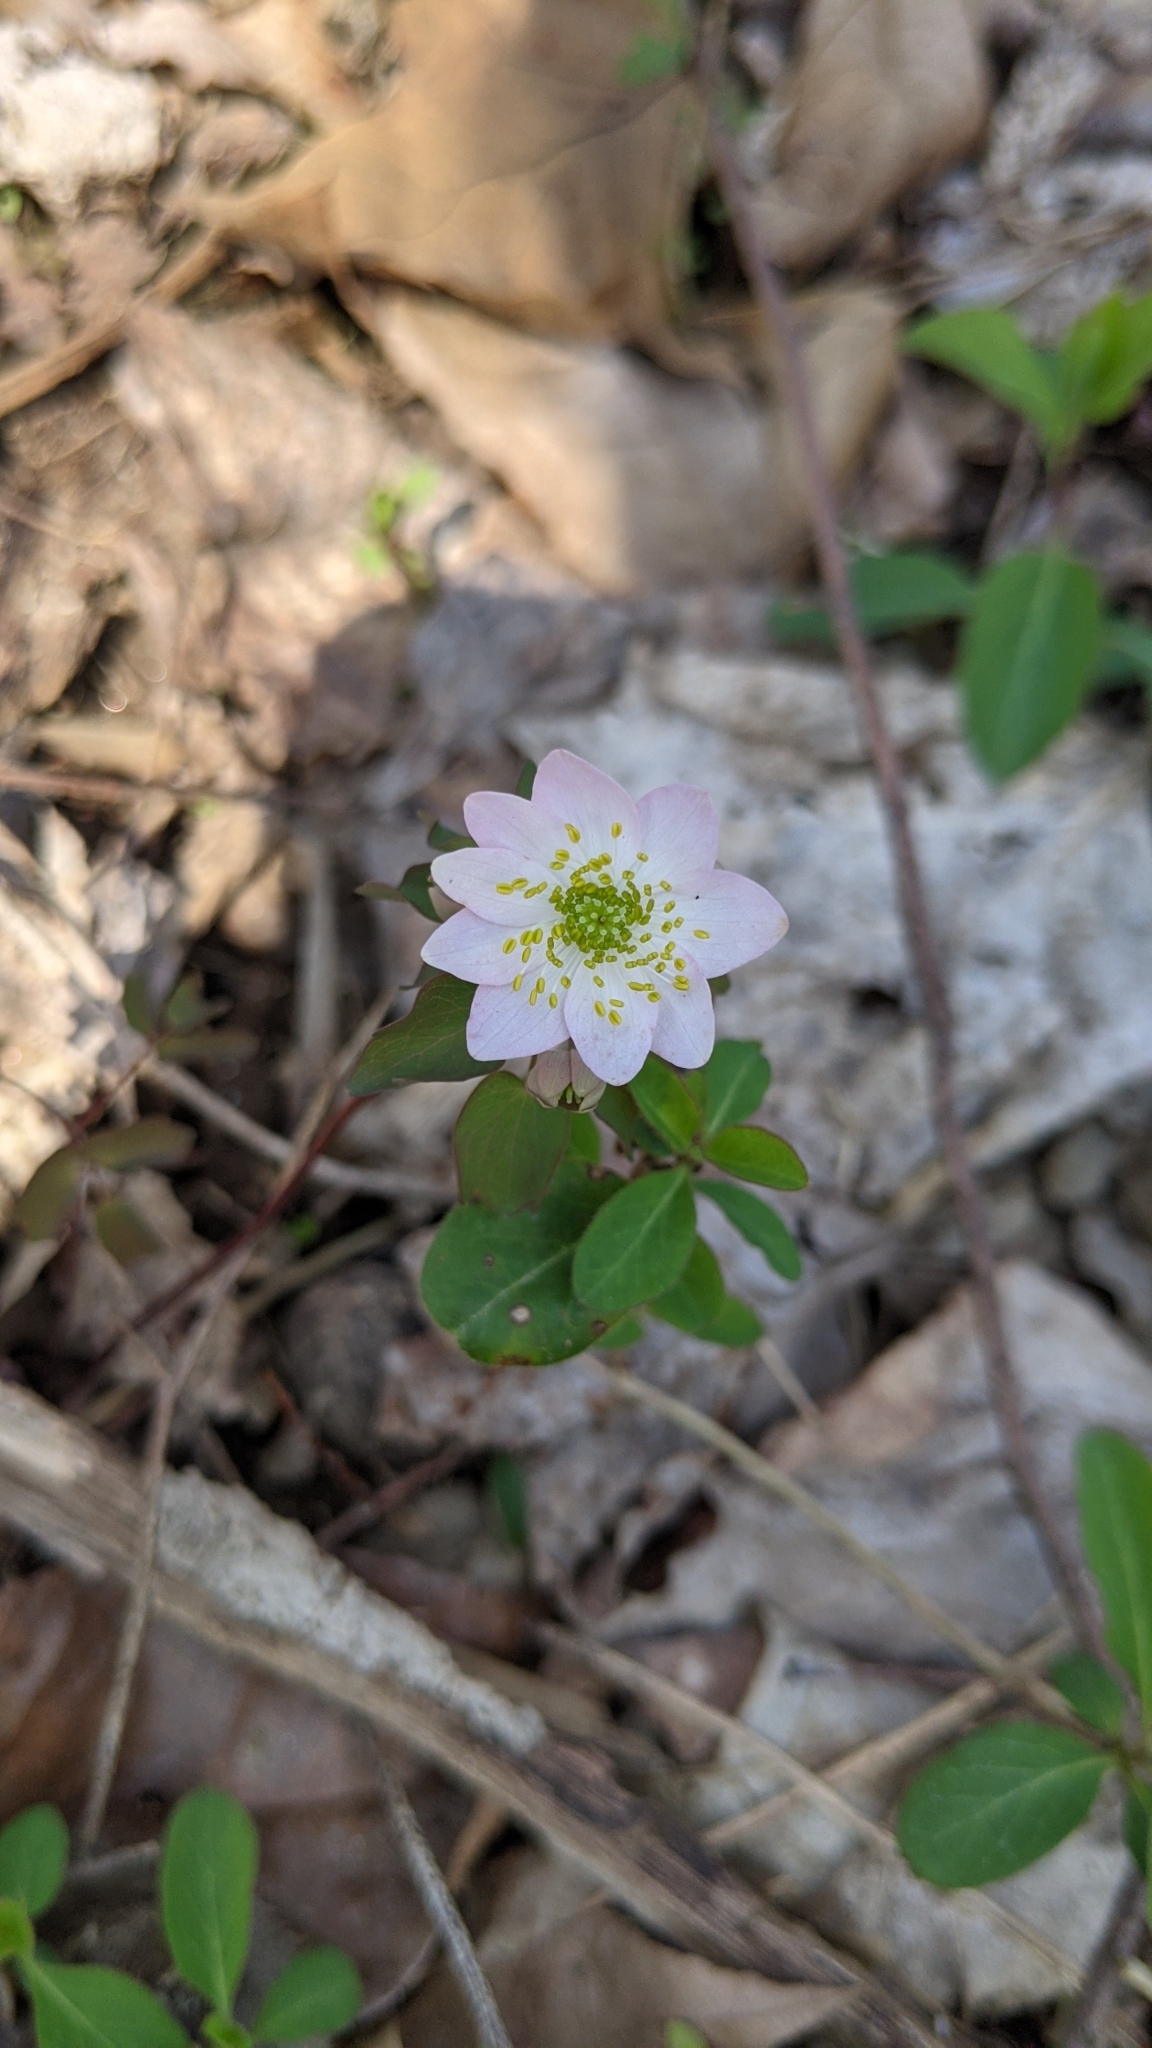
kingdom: Plantae
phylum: Tracheophyta
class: Magnoliopsida
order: Ranunculales
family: Ranunculaceae
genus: Thalictrum
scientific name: Thalictrum thalictroides
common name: Rue-anemone
